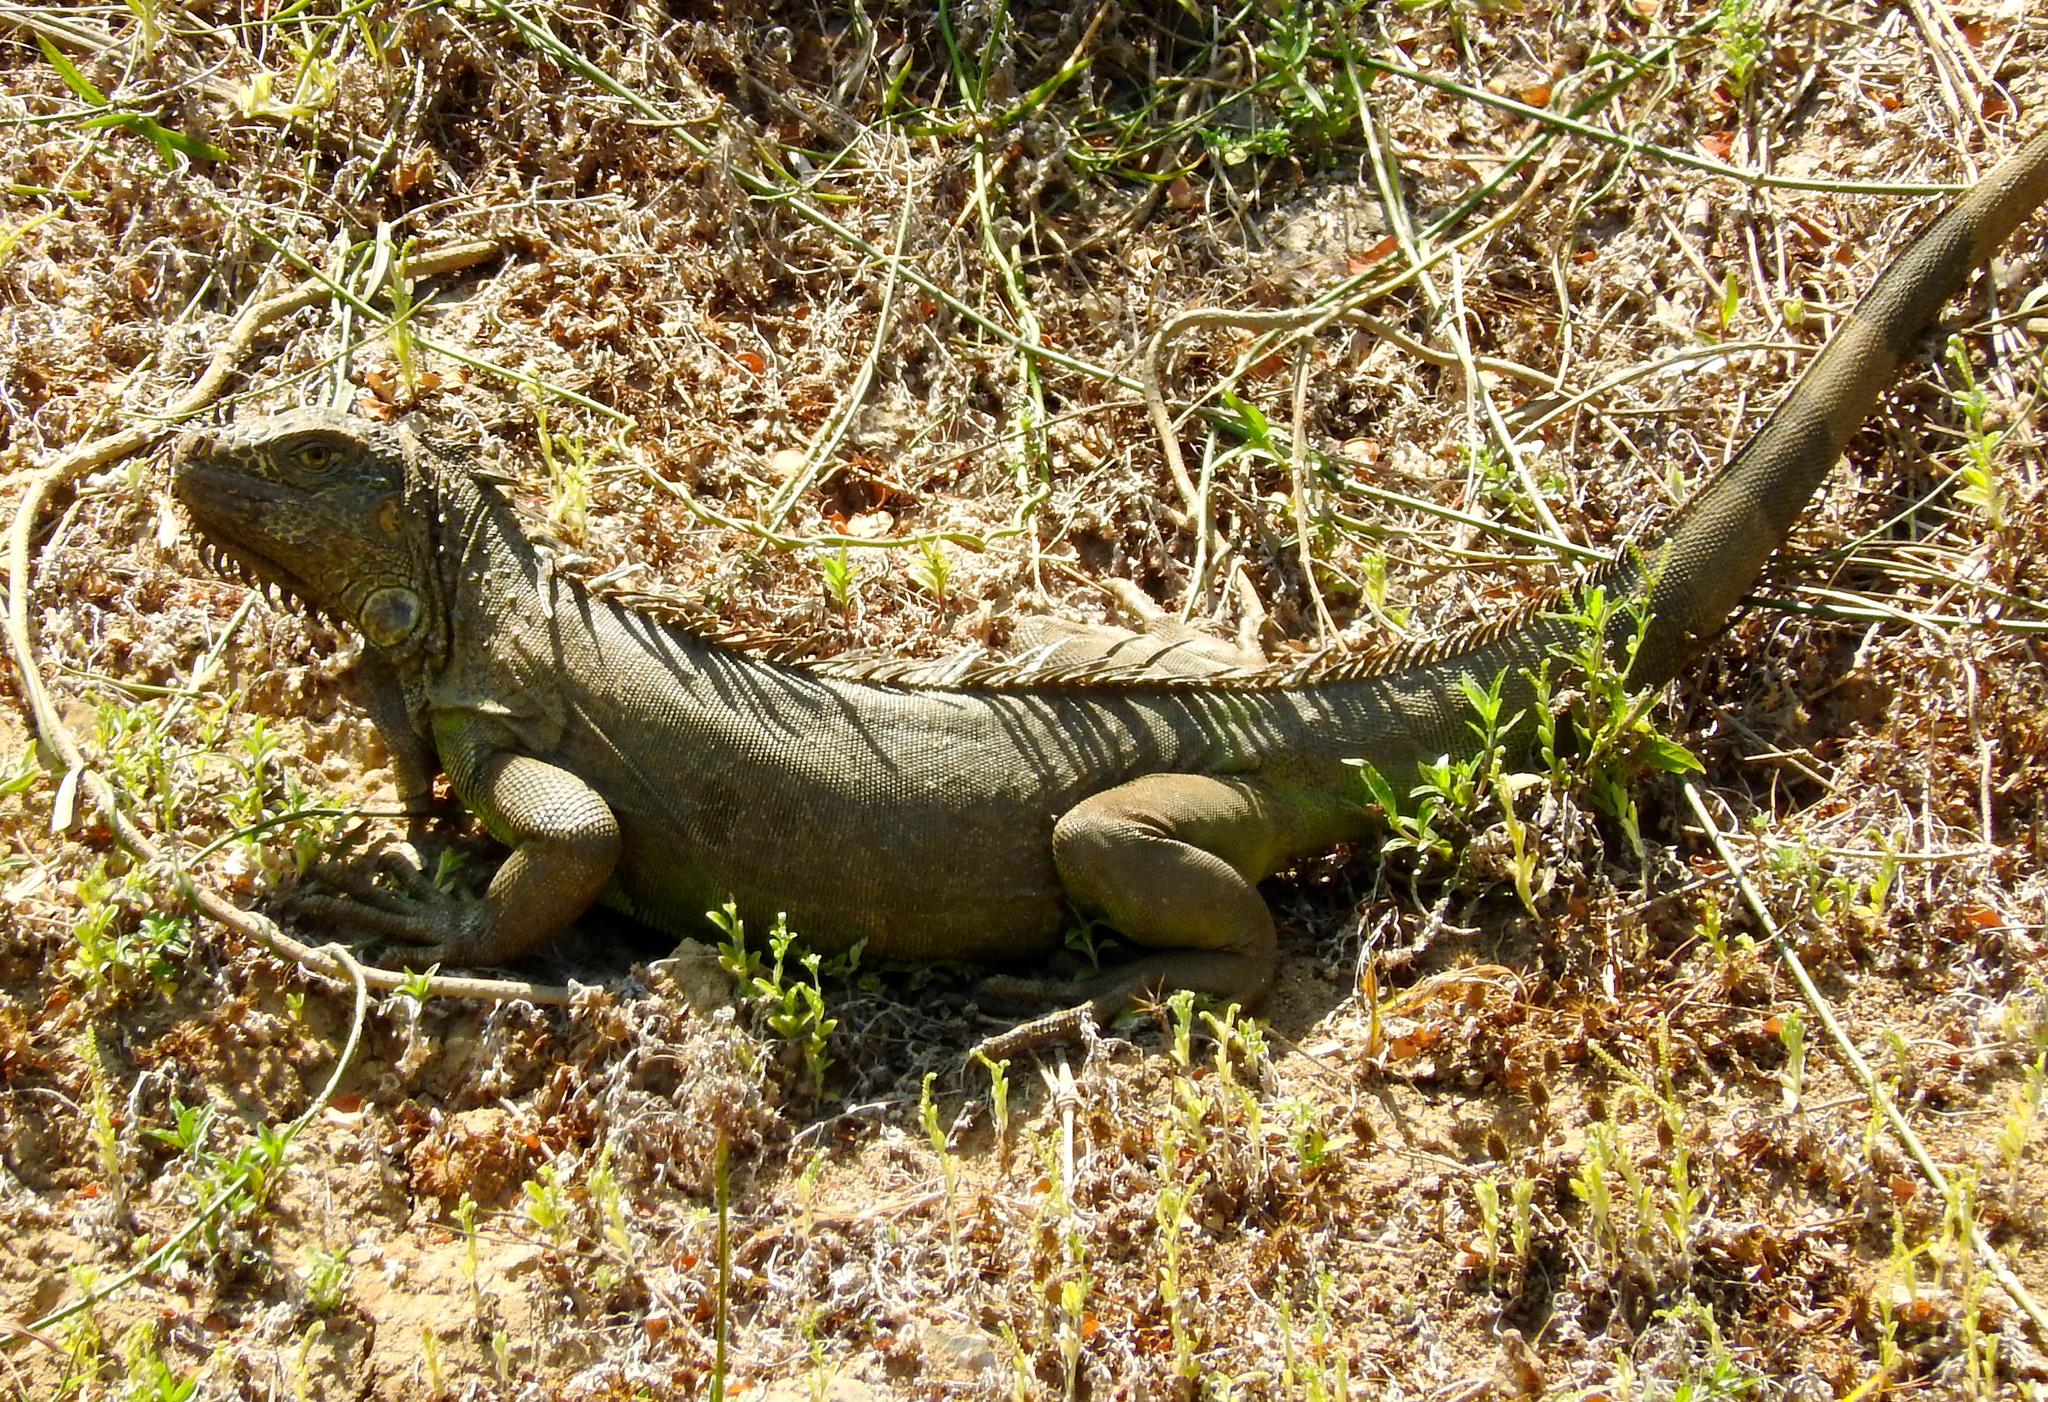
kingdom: Animalia
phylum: Chordata
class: Squamata
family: Iguanidae
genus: Iguana
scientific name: Iguana iguana
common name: Green iguana
